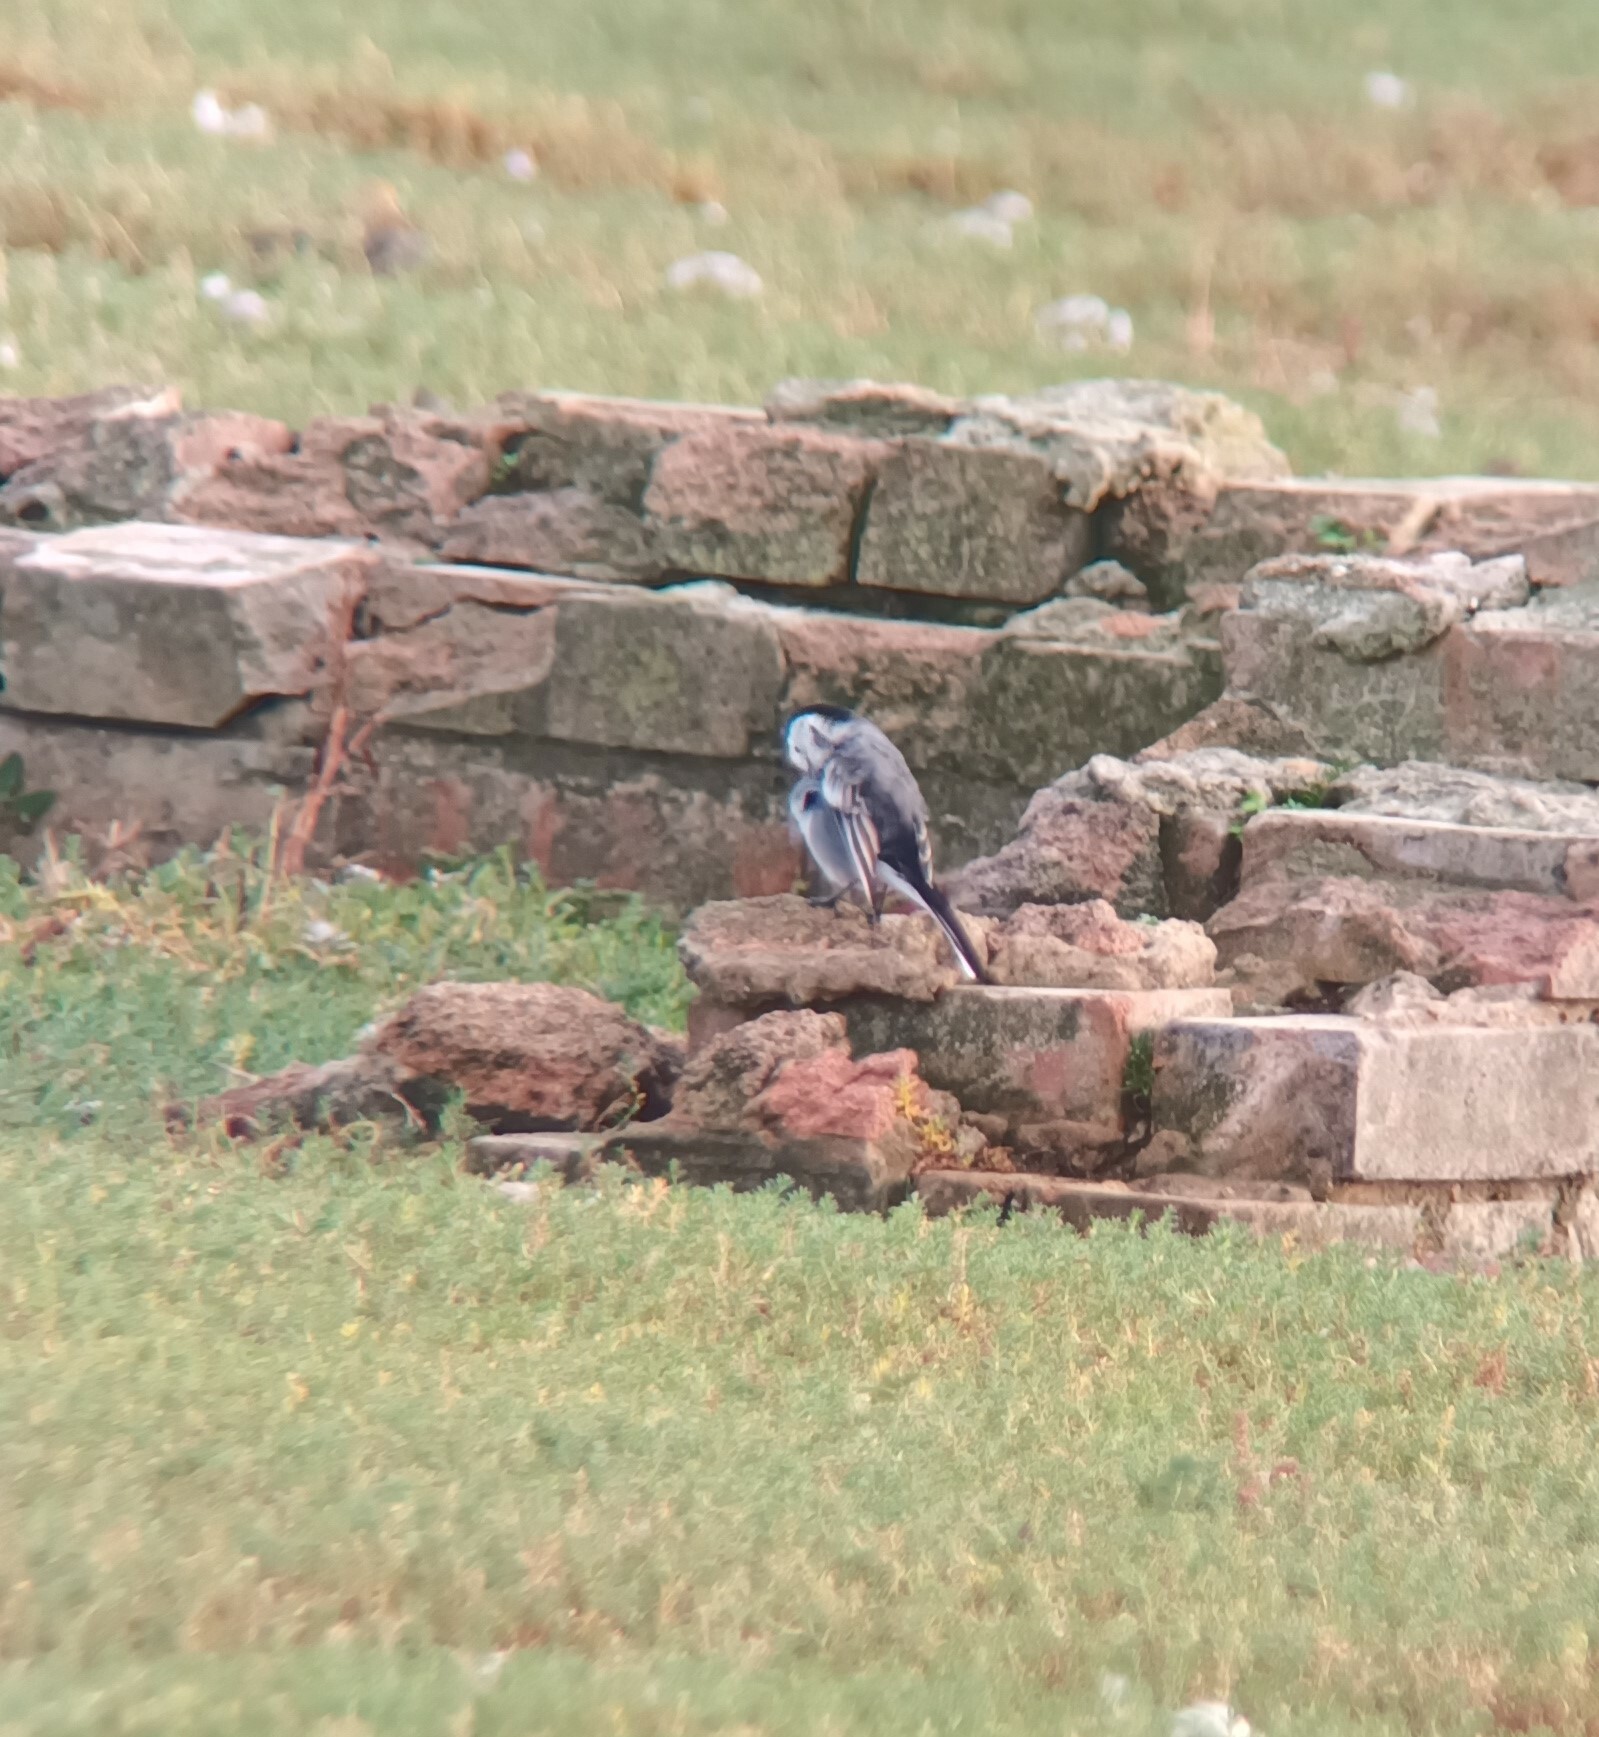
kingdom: Animalia
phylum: Chordata
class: Aves
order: Passeriformes
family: Motacillidae
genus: Motacilla
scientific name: Motacilla alba
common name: White wagtail
